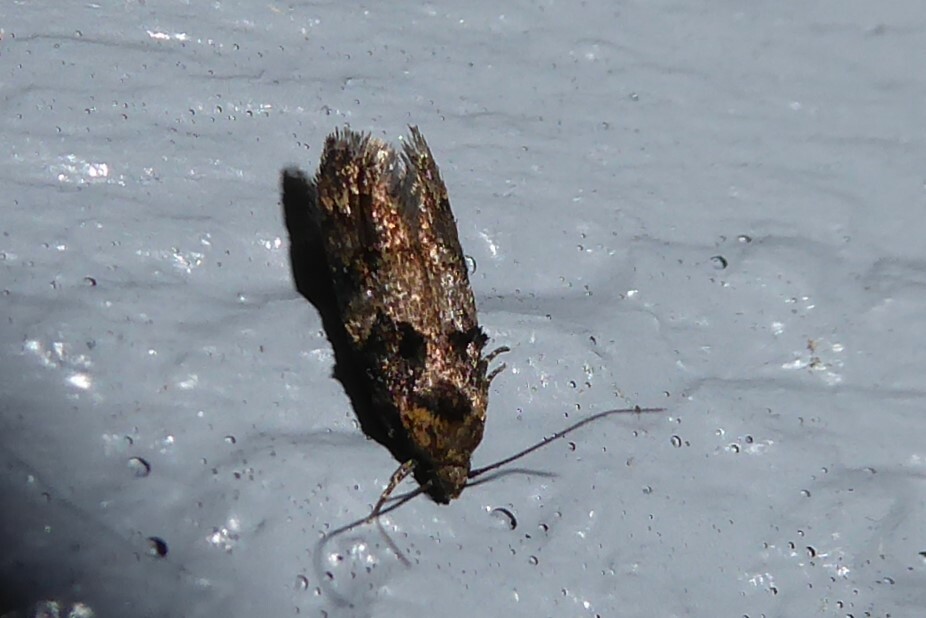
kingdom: Animalia
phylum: Arthropoda
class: Insecta
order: Lepidoptera
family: Oecophoridae
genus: Trachypepla
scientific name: Trachypepla anastrella
